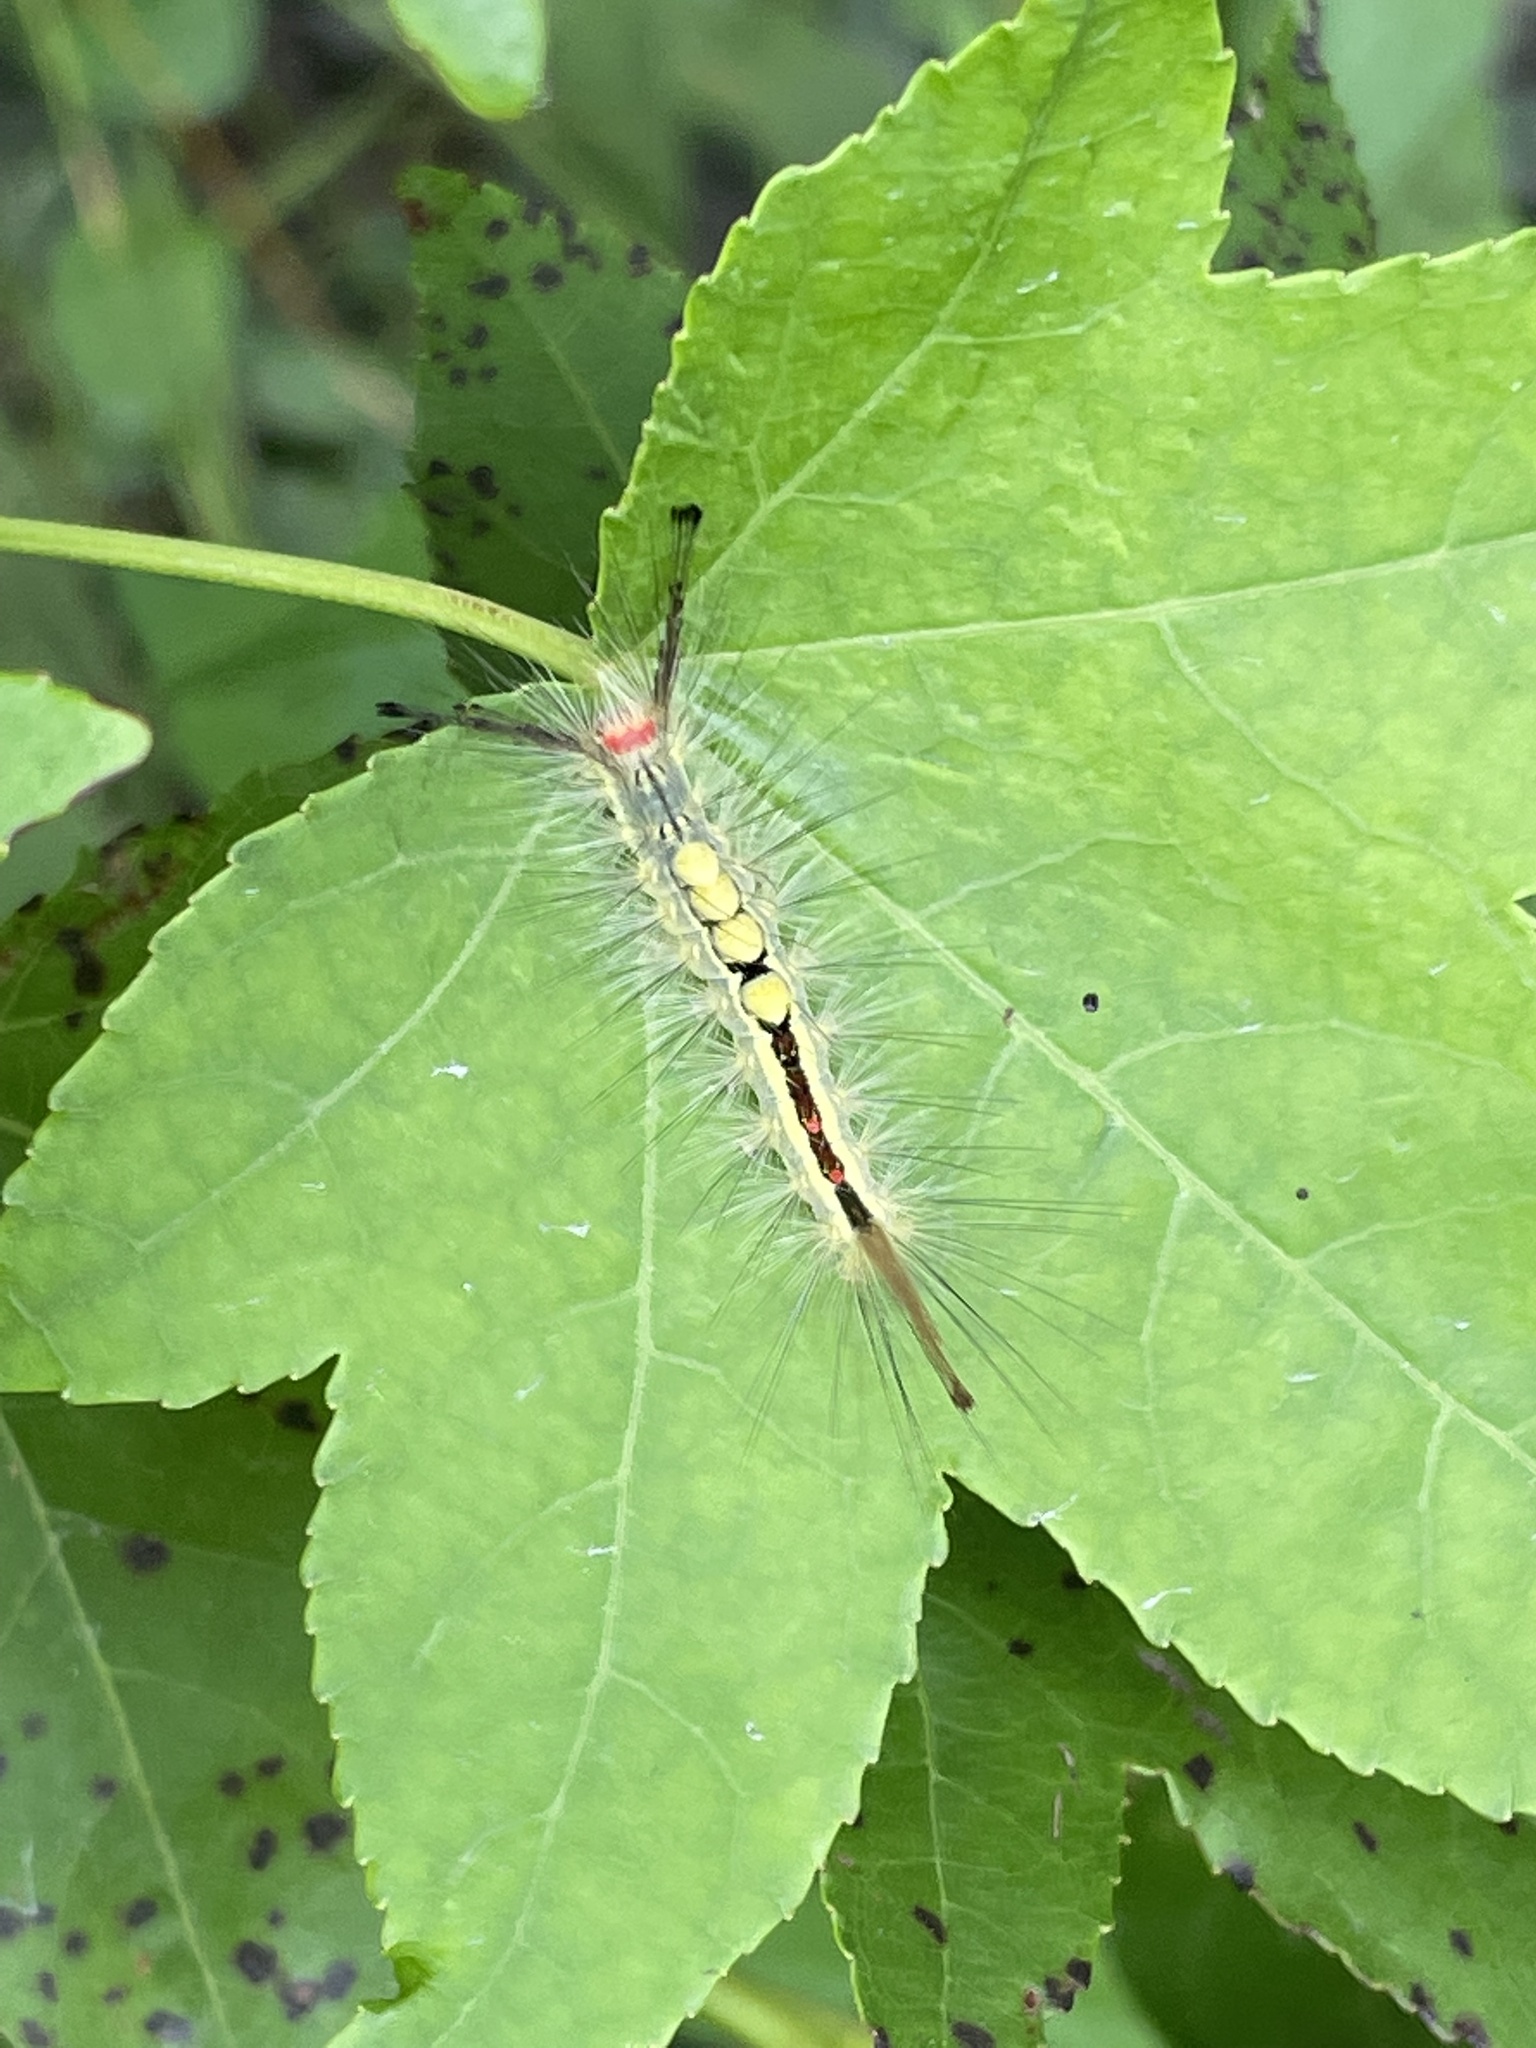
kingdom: Animalia
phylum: Arthropoda
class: Insecta
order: Lepidoptera
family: Erebidae
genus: Orgyia
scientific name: Orgyia leucostigma
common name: White-marked tussock moth
